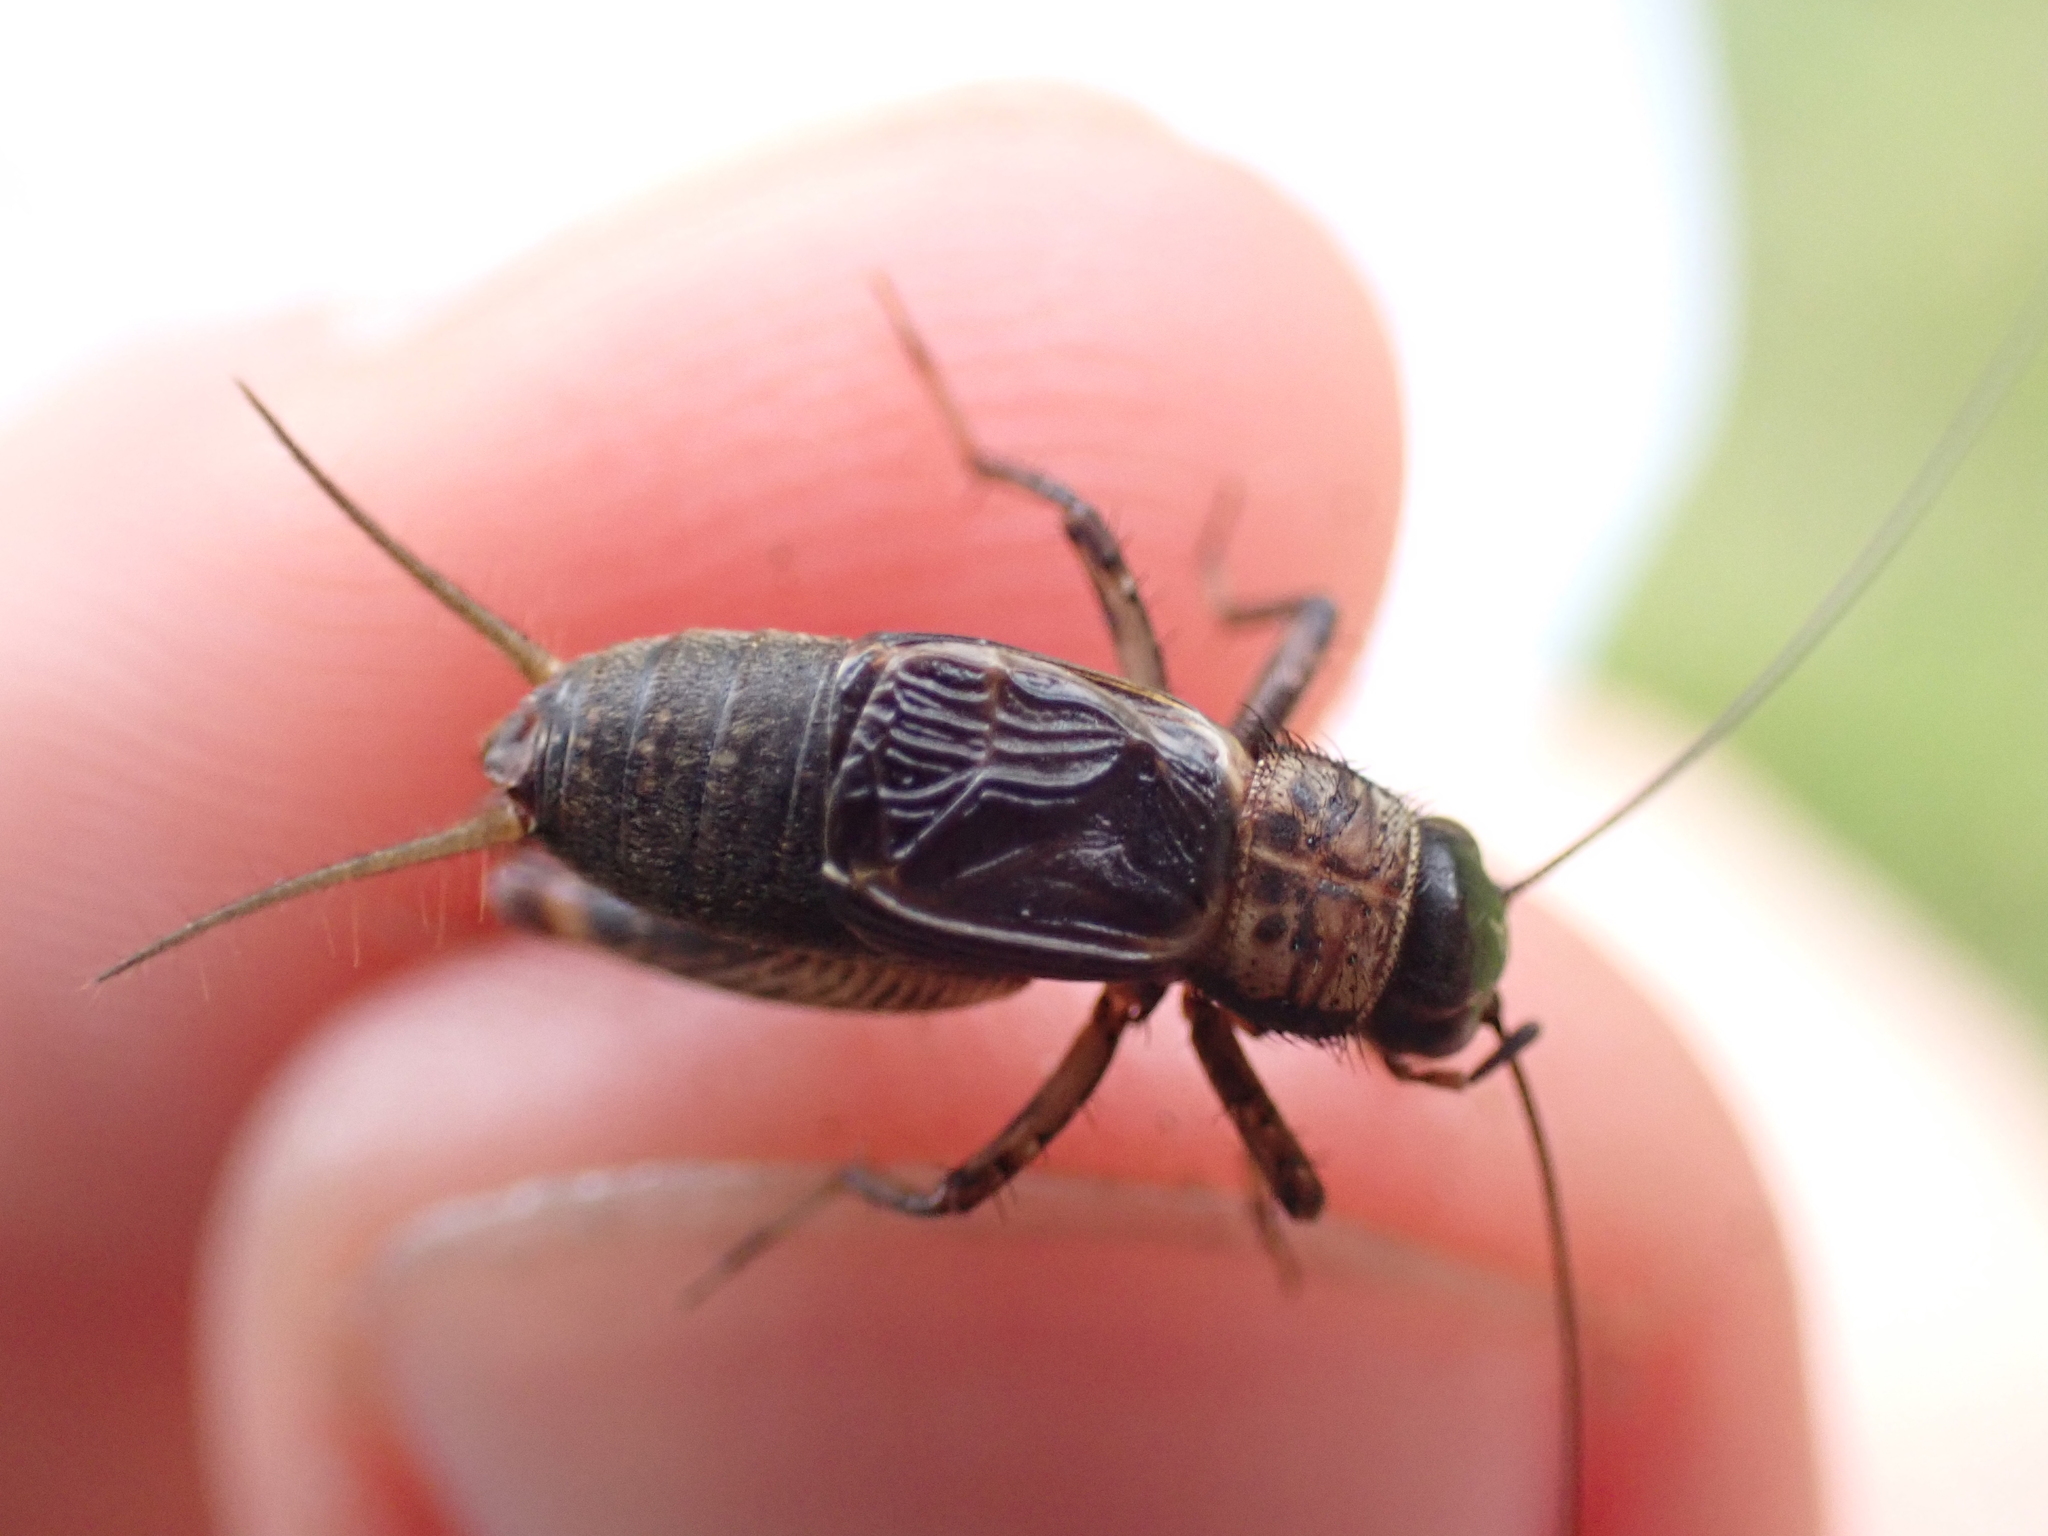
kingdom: Animalia
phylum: Arthropoda
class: Insecta
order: Orthoptera
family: Trigonidiidae
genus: Nemobius
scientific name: Nemobius sylvestris
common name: Wood-cricket
